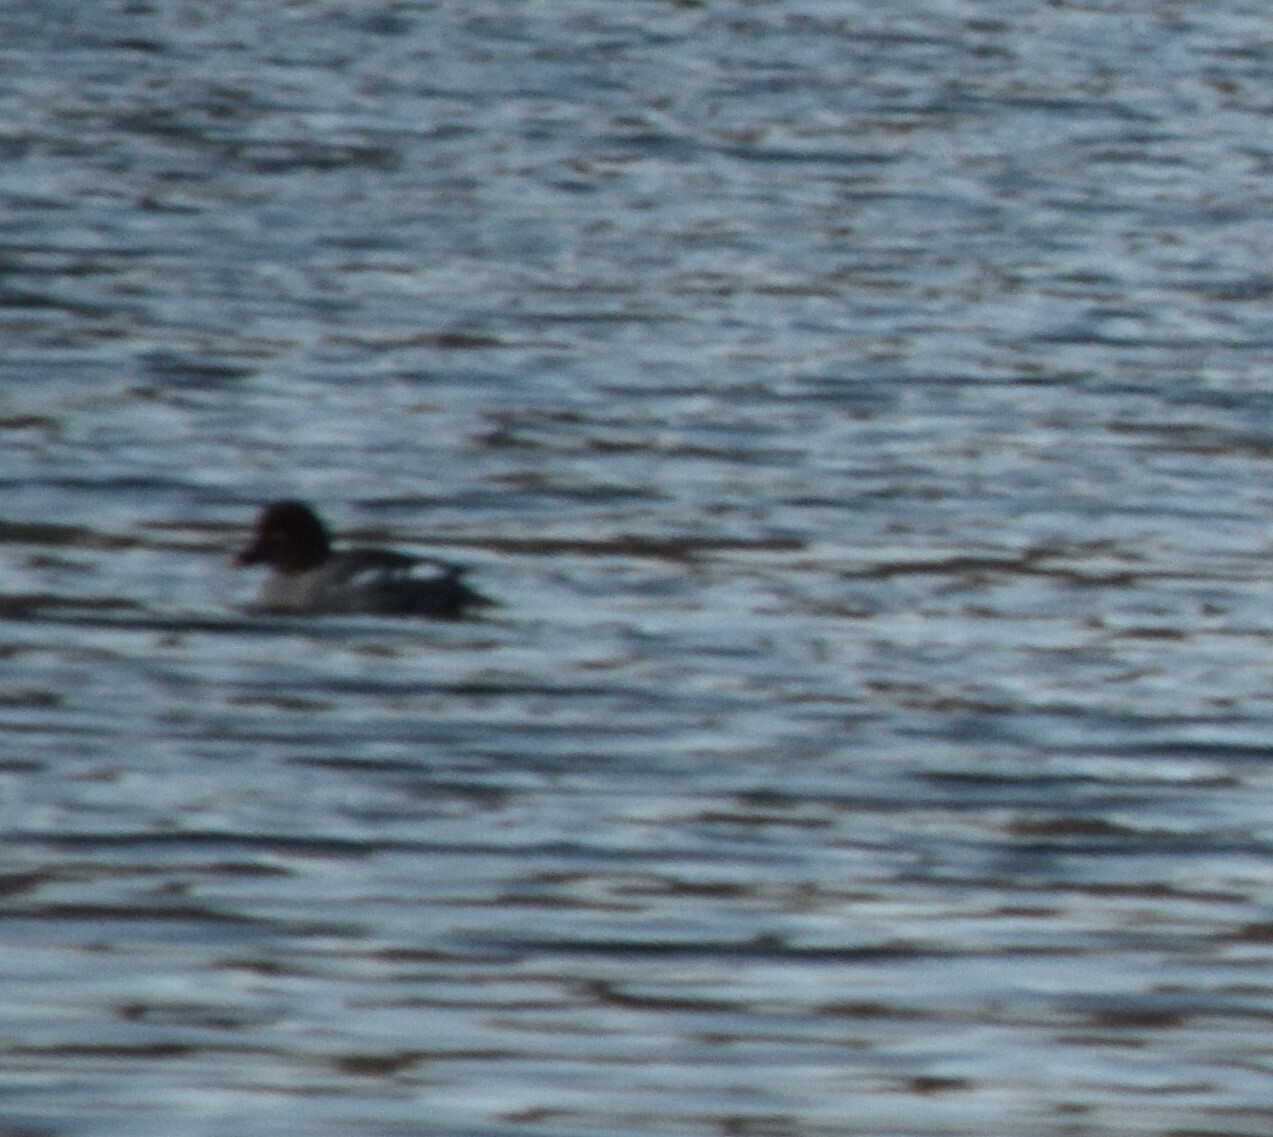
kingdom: Animalia
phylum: Chordata
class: Aves
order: Anseriformes
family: Anatidae
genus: Bucephala
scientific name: Bucephala clangula
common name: Common goldeneye
